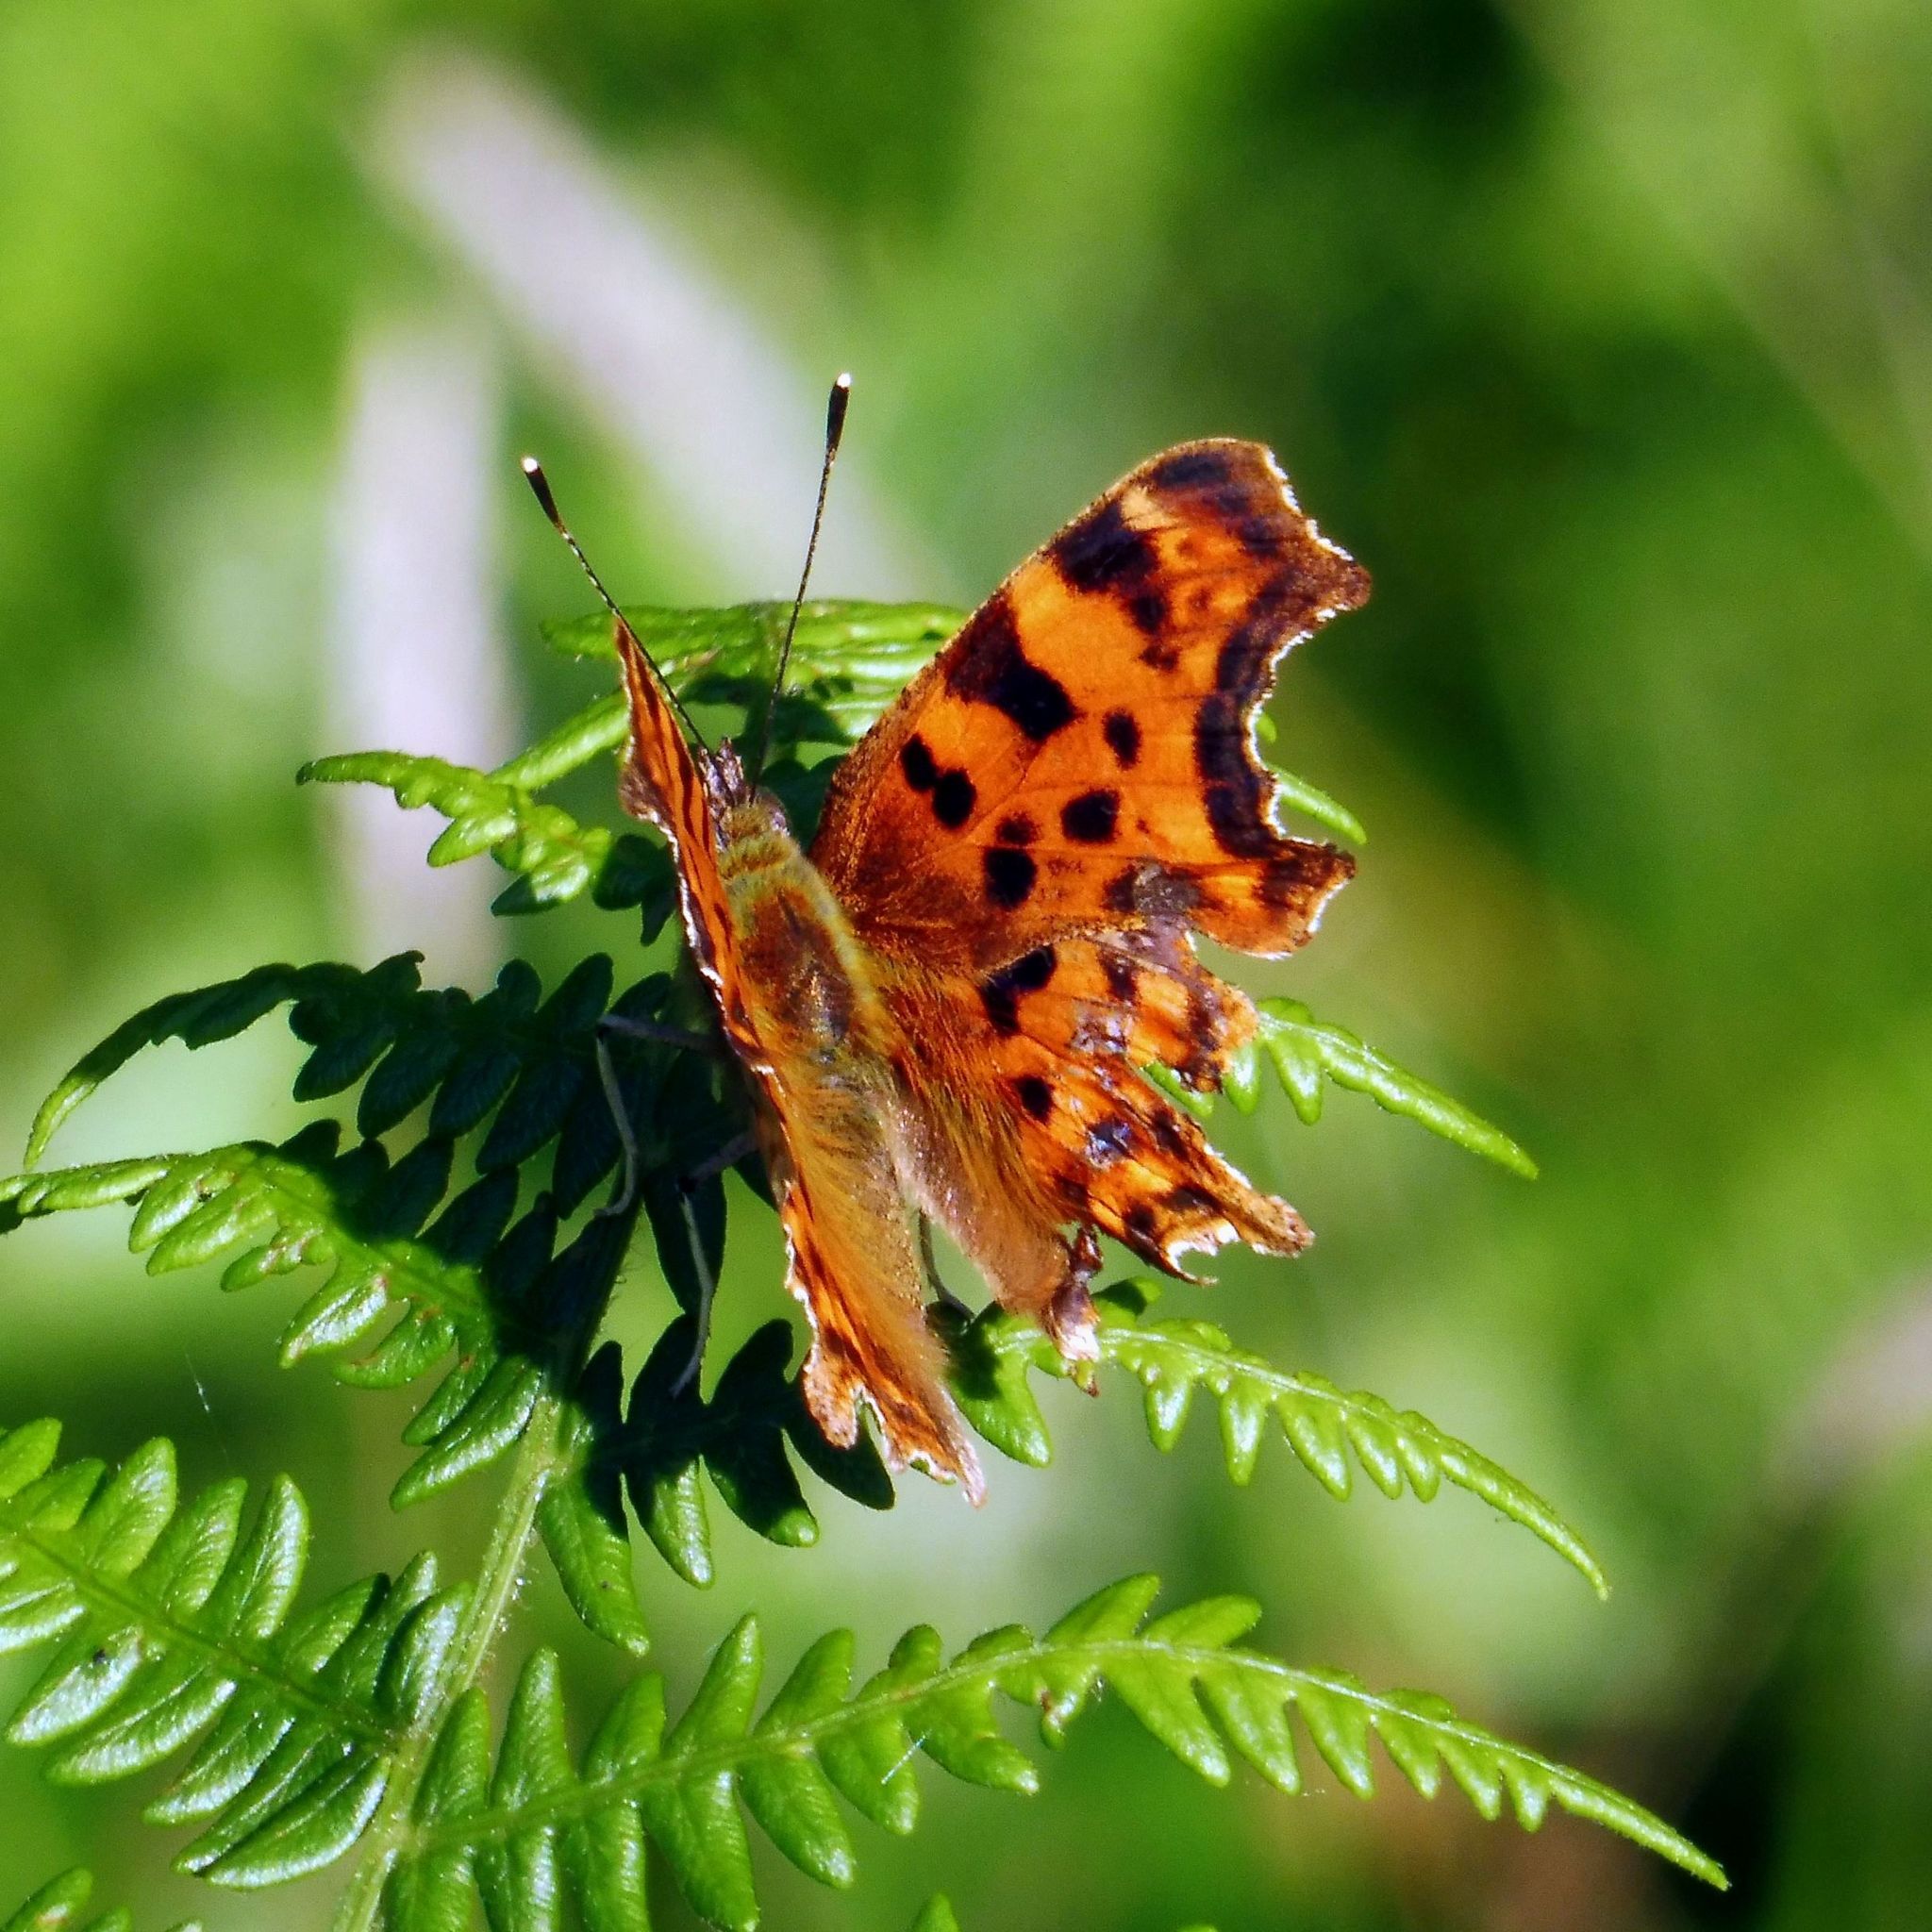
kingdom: Animalia
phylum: Arthropoda
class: Insecta
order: Lepidoptera
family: Nymphalidae
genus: Polygonia
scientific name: Polygonia c-album
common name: Comma
